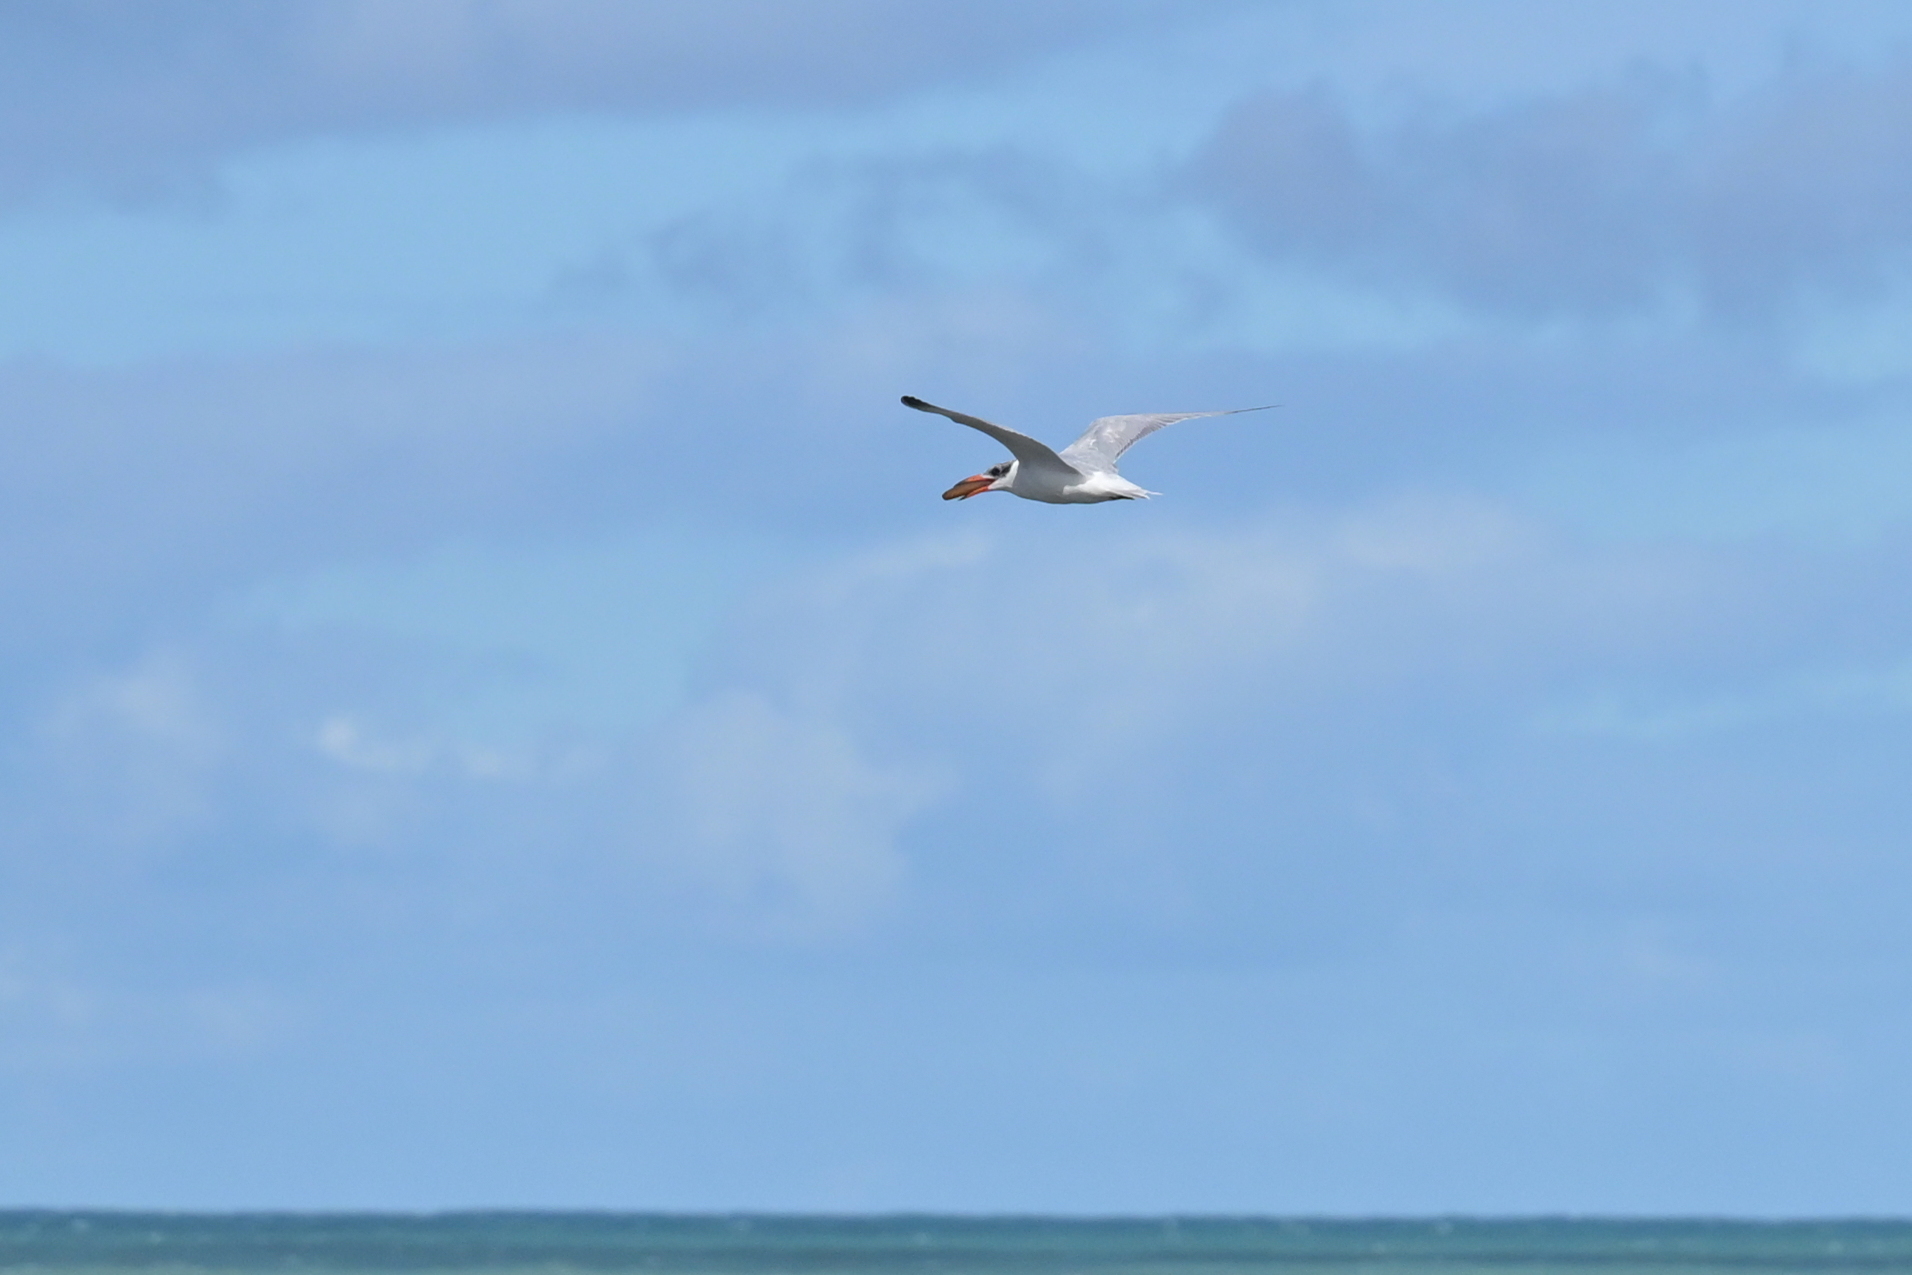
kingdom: Animalia
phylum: Chordata
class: Aves
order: Charadriiformes
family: Laridae
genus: Hydroprogne
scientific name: Hydroprogne caspia
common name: Caspian tern
